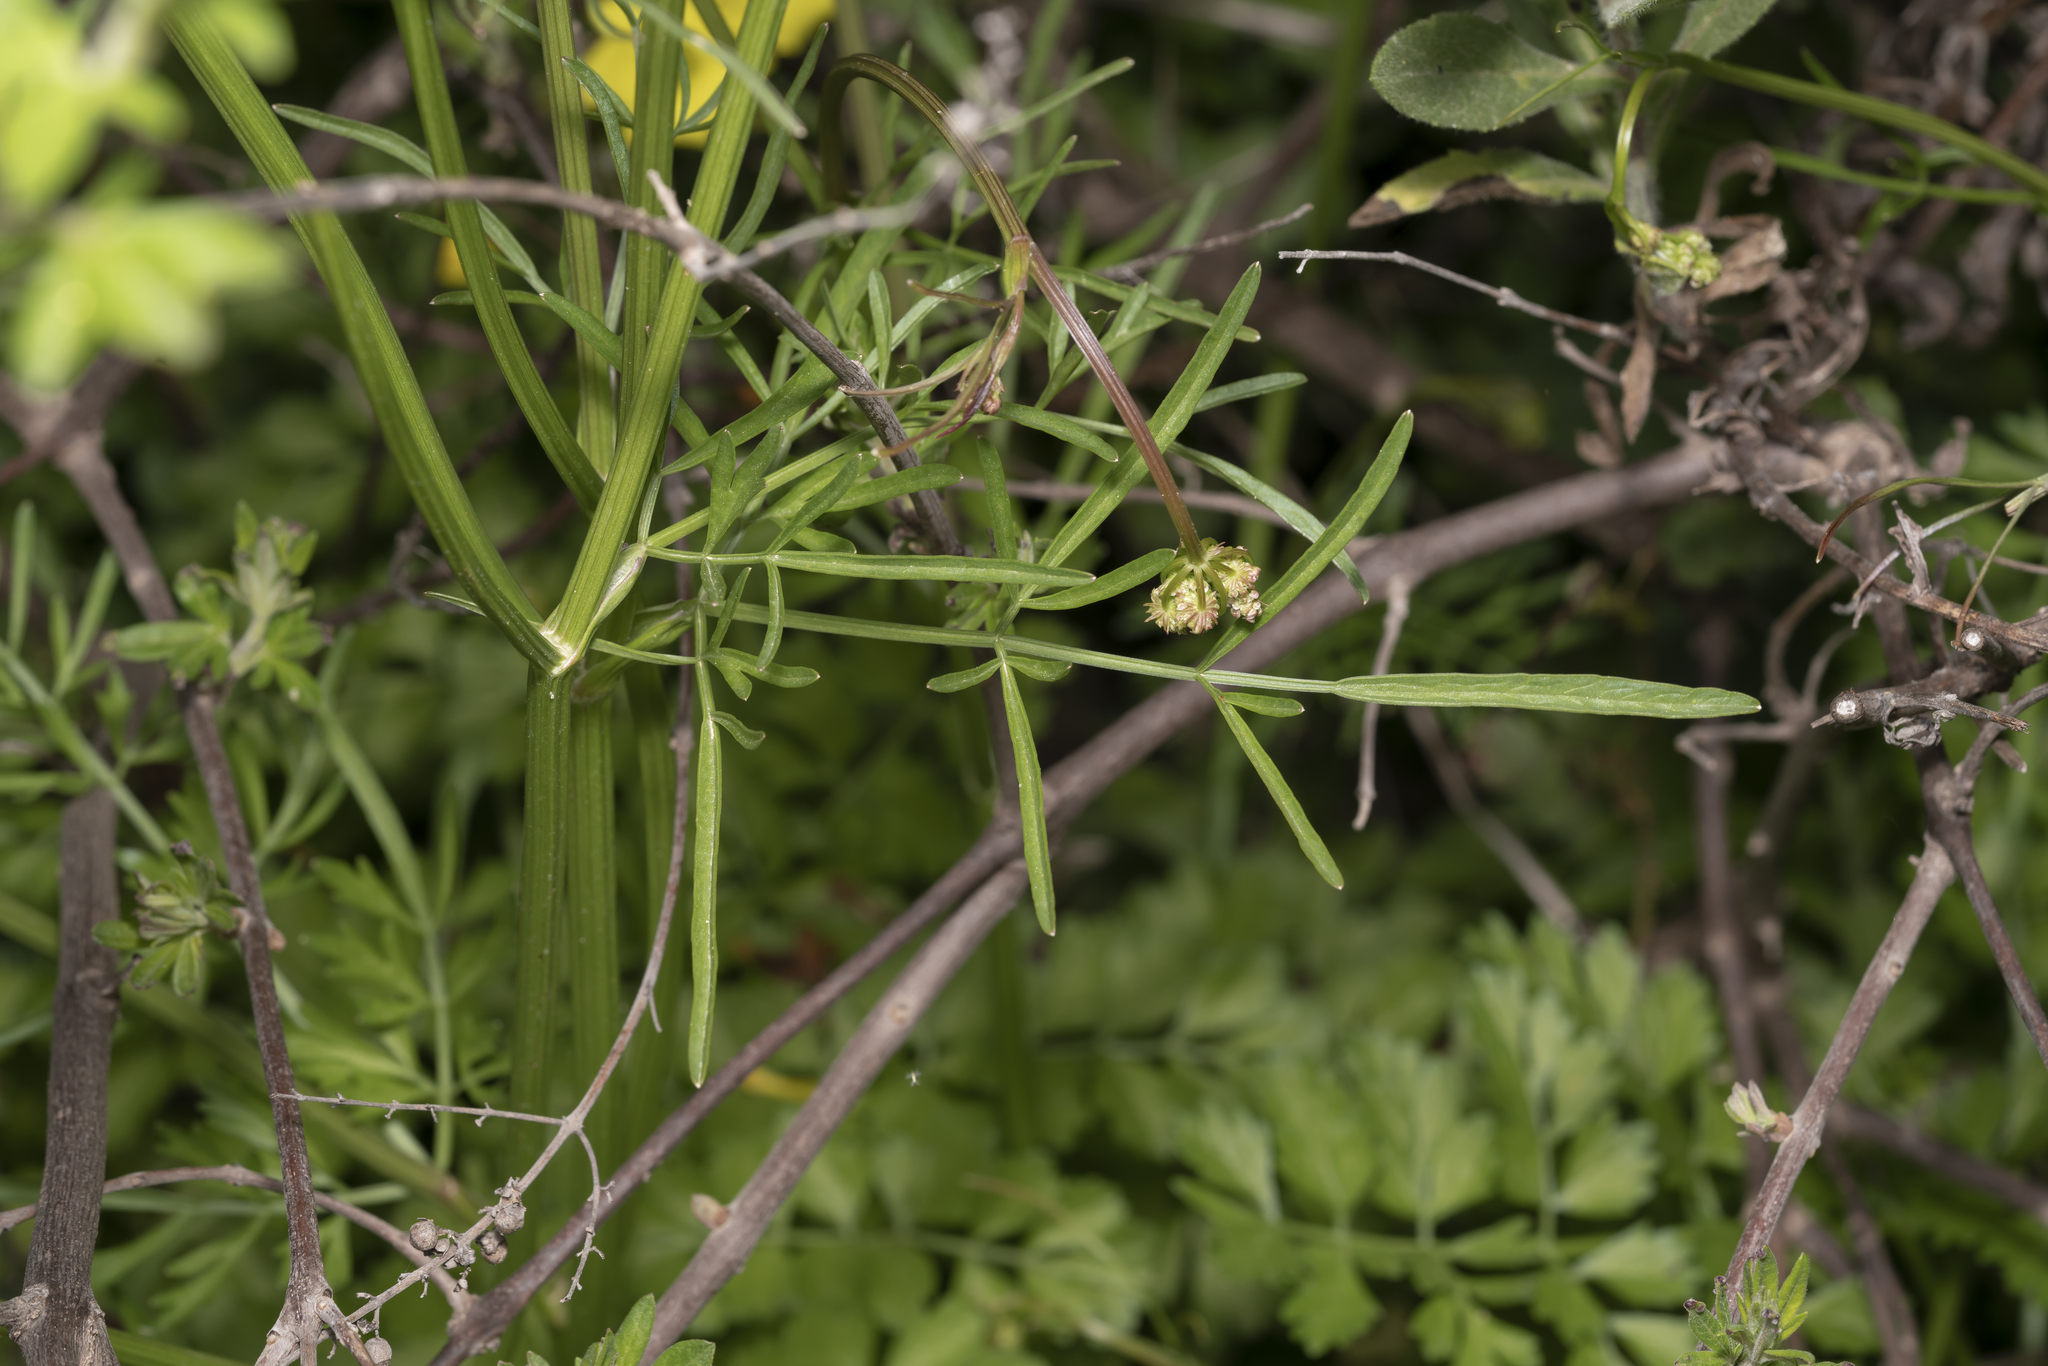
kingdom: Plantae
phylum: Tracheophyta
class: Magnoliopsida
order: Apiales
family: Apiaceae
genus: Oenanthe
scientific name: Oenanthe globulosa
